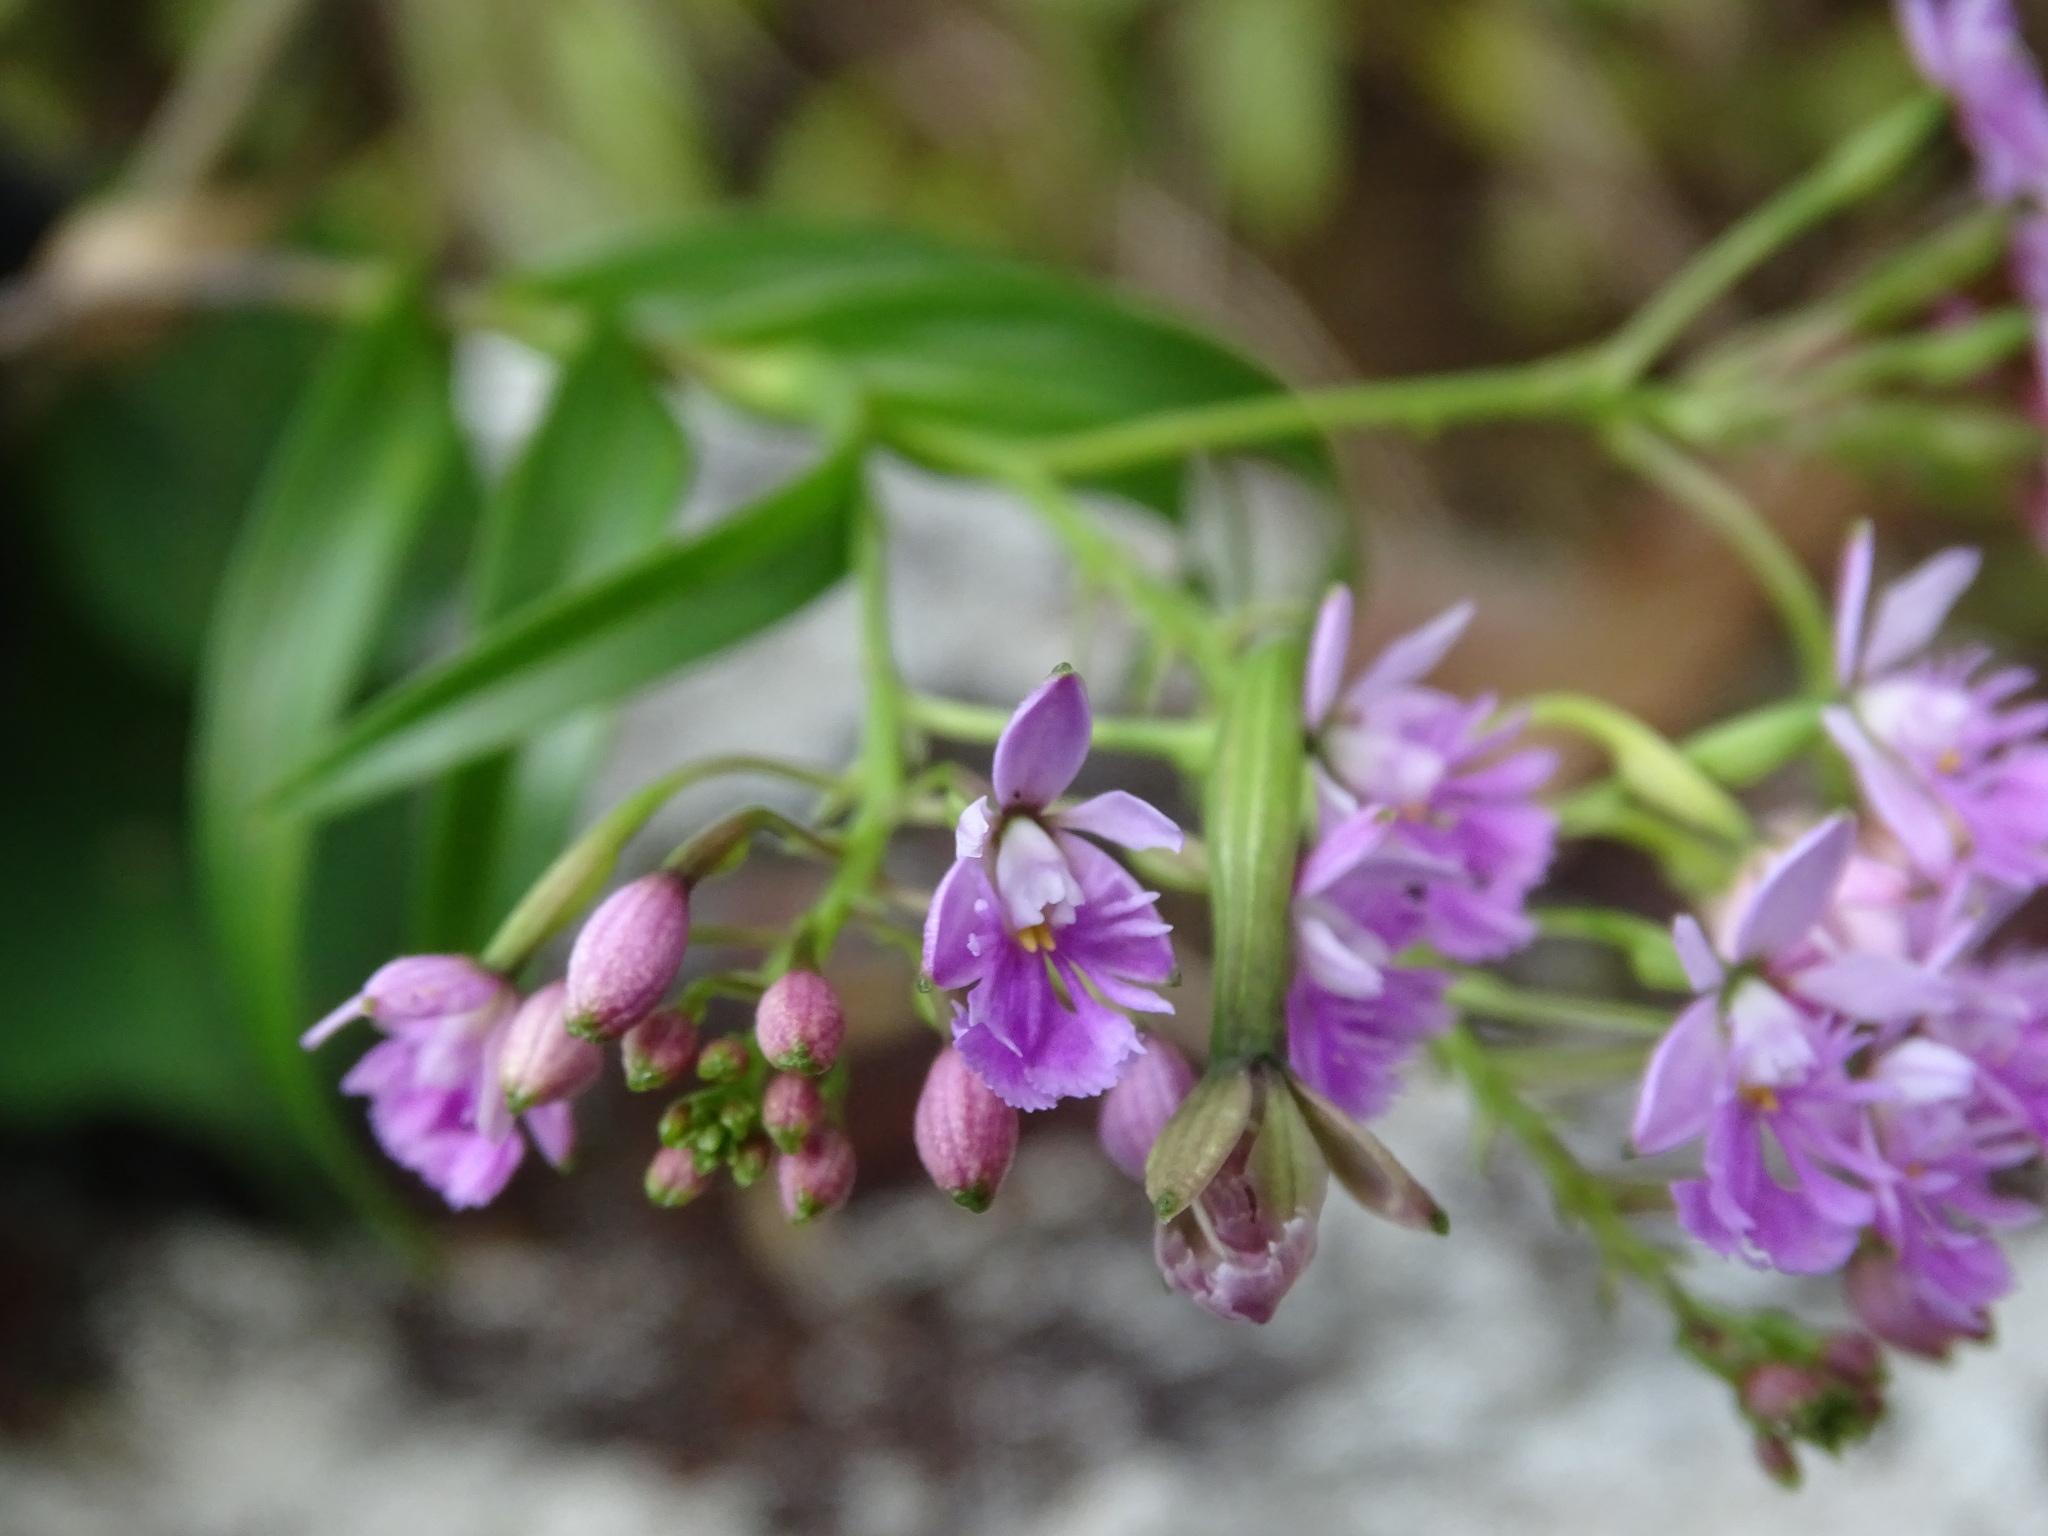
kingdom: Plantae
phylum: Tracheophyta
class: Liliopsida
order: Asparagales
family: Orchidaceae
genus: Epidendrum
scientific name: Epidendrum caligarium
